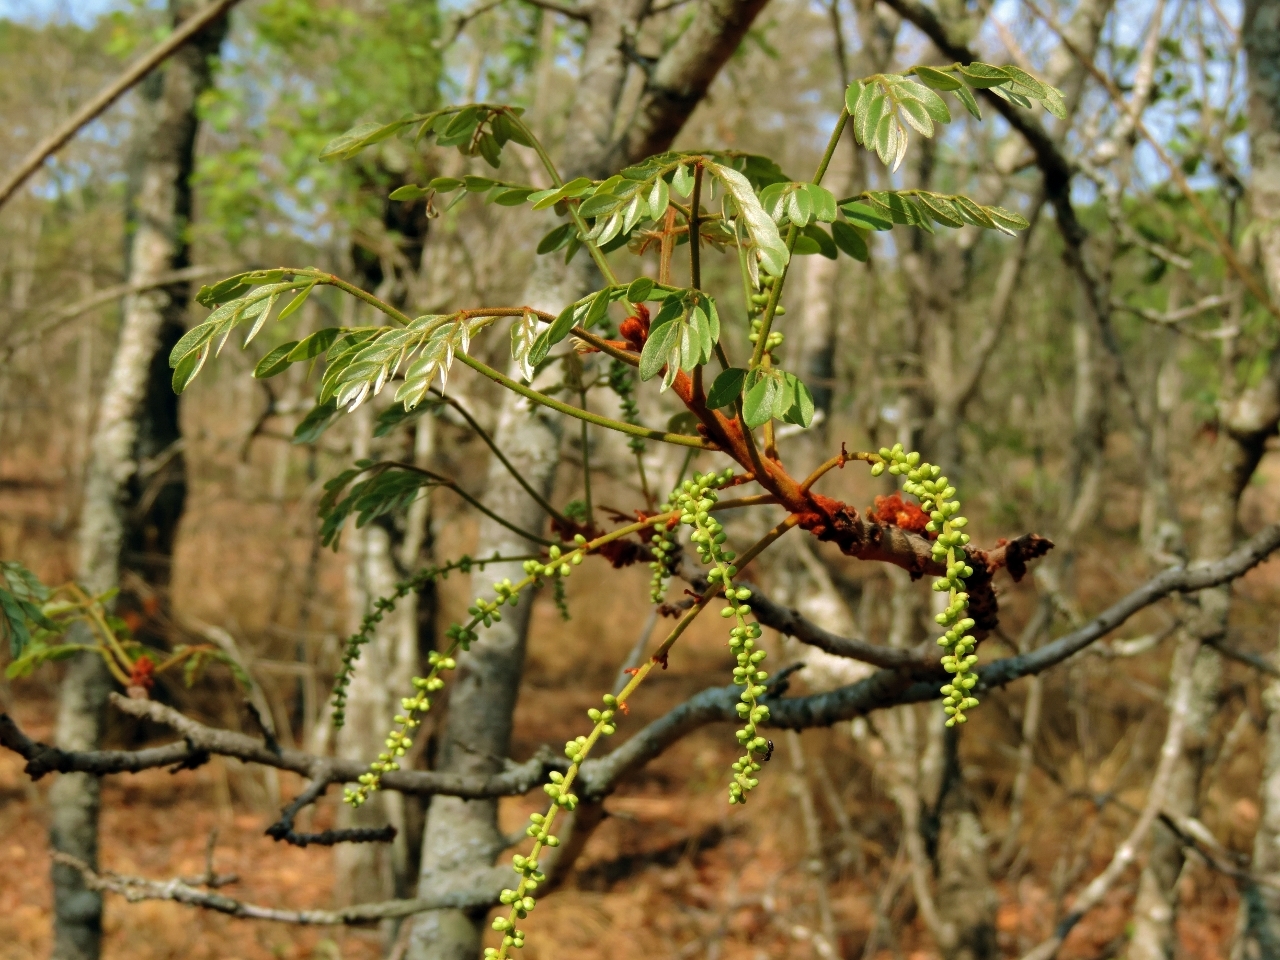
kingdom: Plantae
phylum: Tracheophyta
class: Magnoliopsida
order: Fabales
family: Fabaceae
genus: Burkea
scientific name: Burkea africana
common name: Mkalati tree
